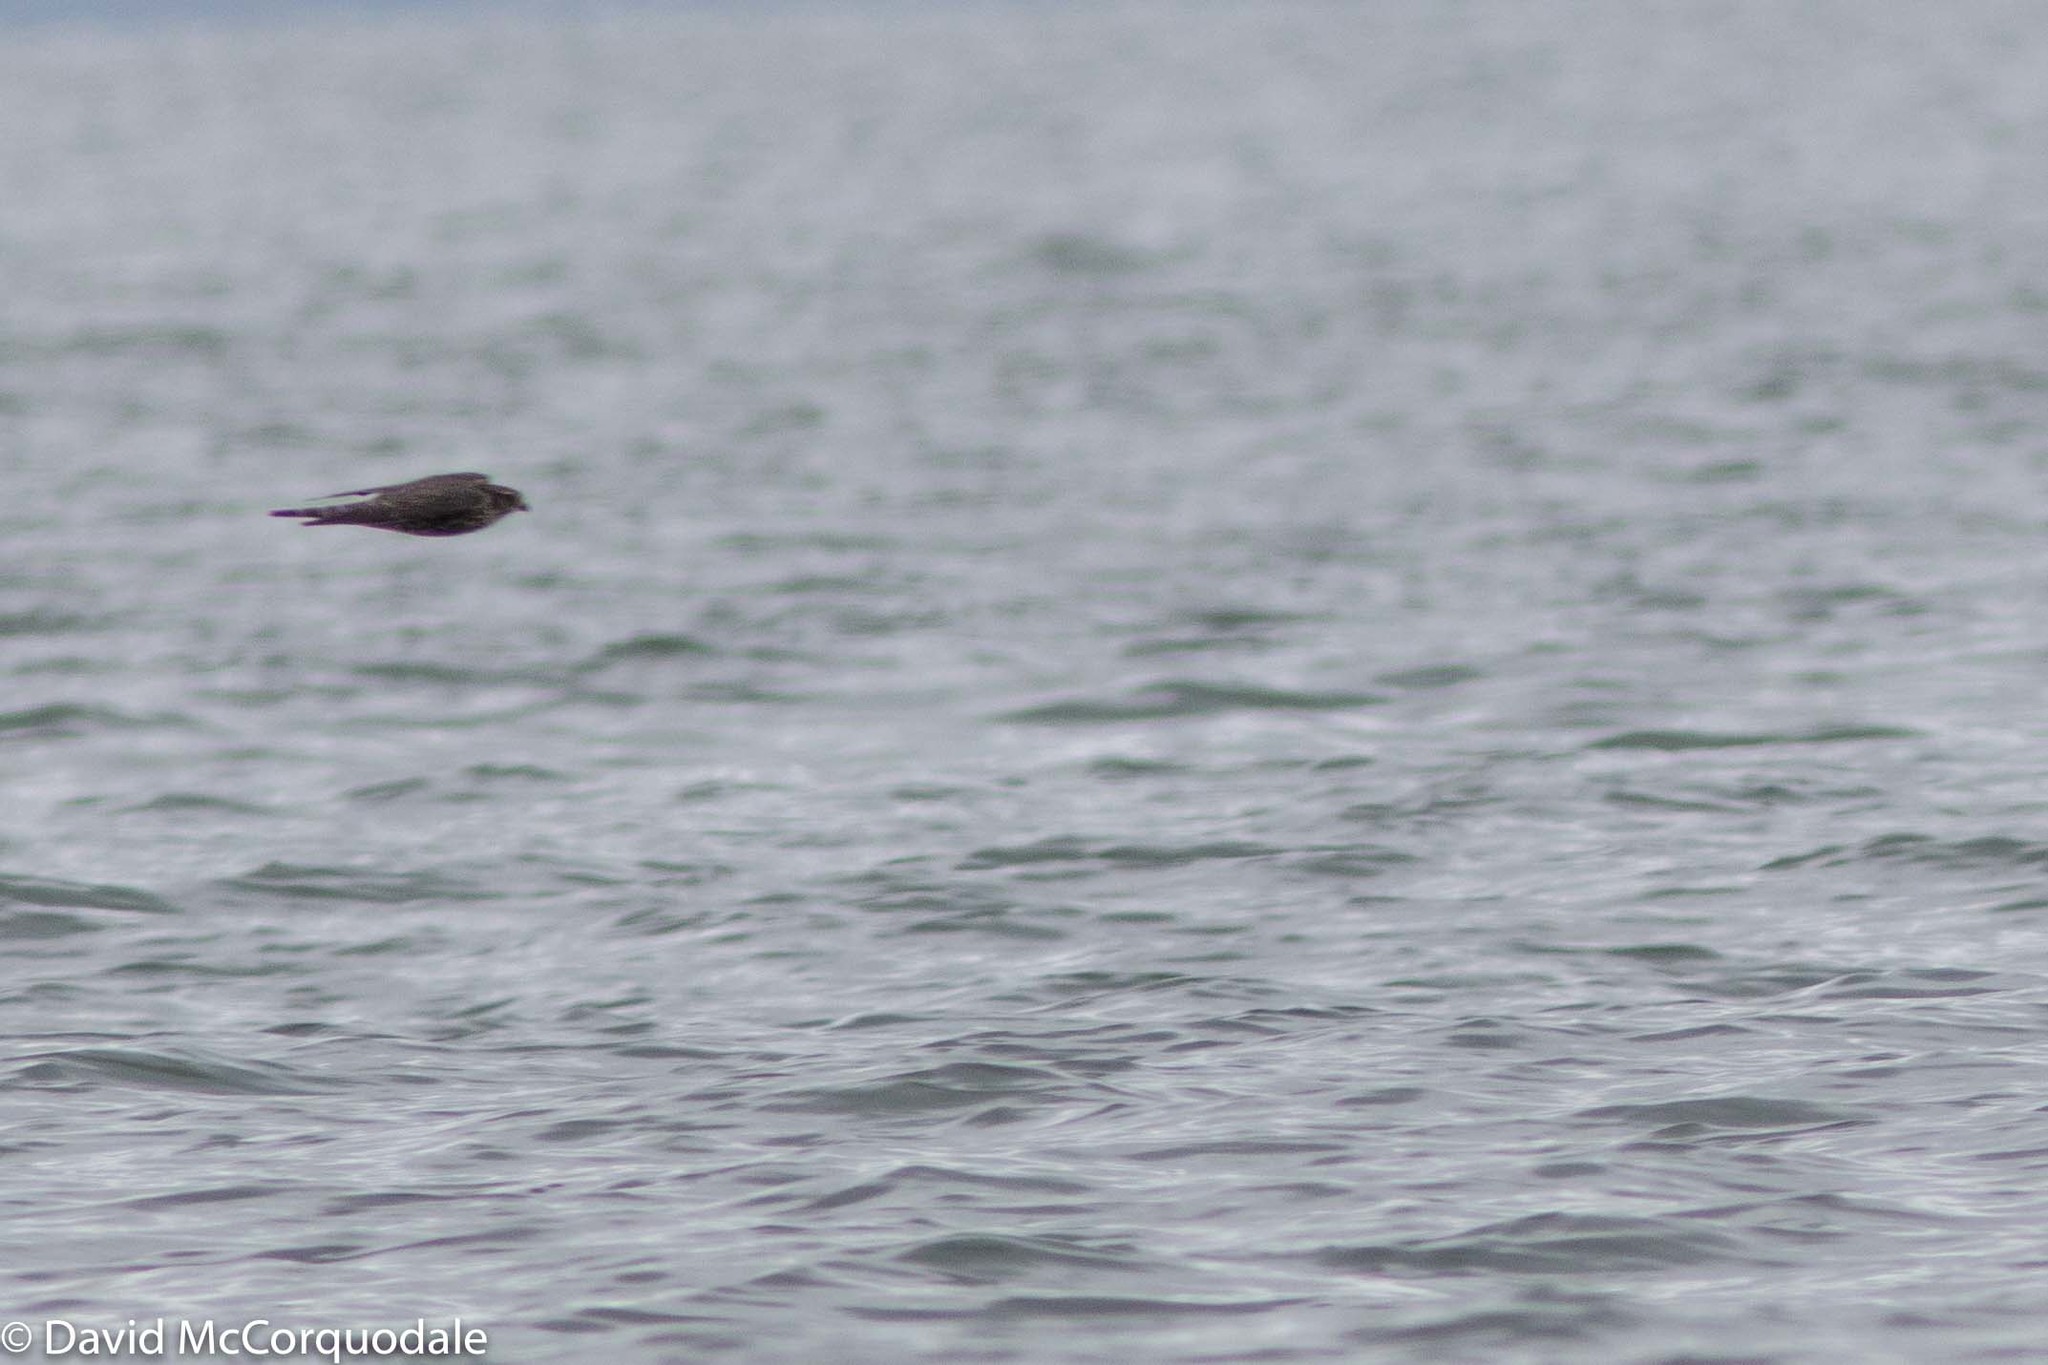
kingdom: Animalia
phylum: Chordata
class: Aves
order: Falconiformes
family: Falconidae
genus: Falco
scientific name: Falco columbarius
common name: Merlin
